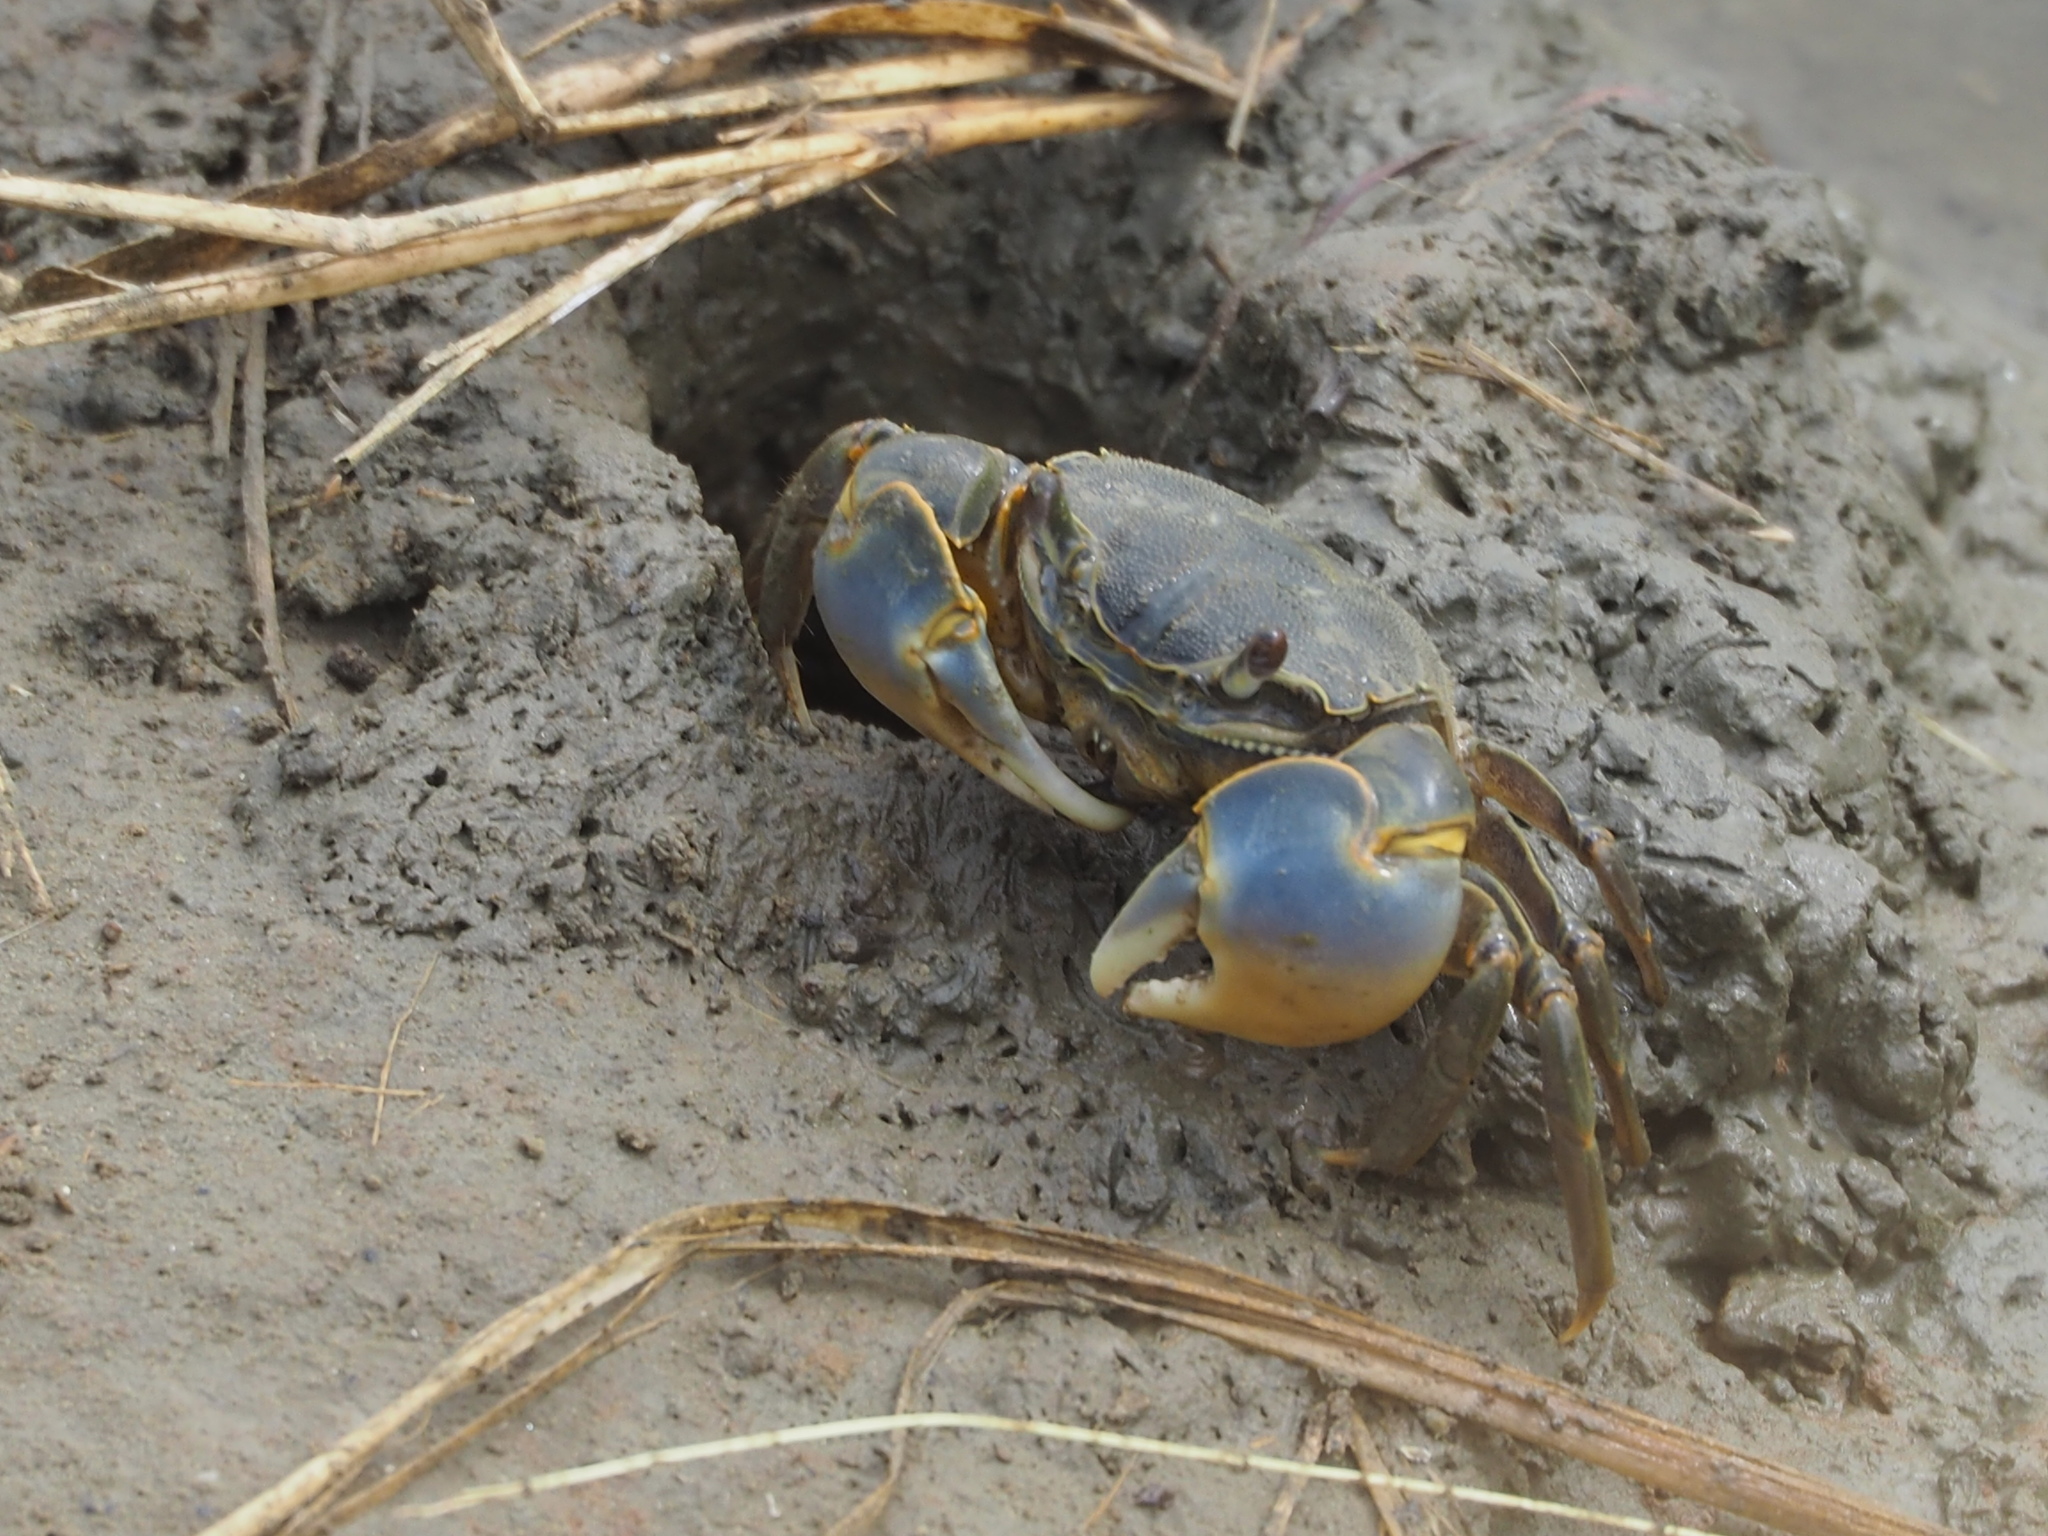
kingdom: Animalia
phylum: Arthropoda
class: Malacostraca
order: Decapoda
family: Varunidae
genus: Helice
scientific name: Helice formosensis
